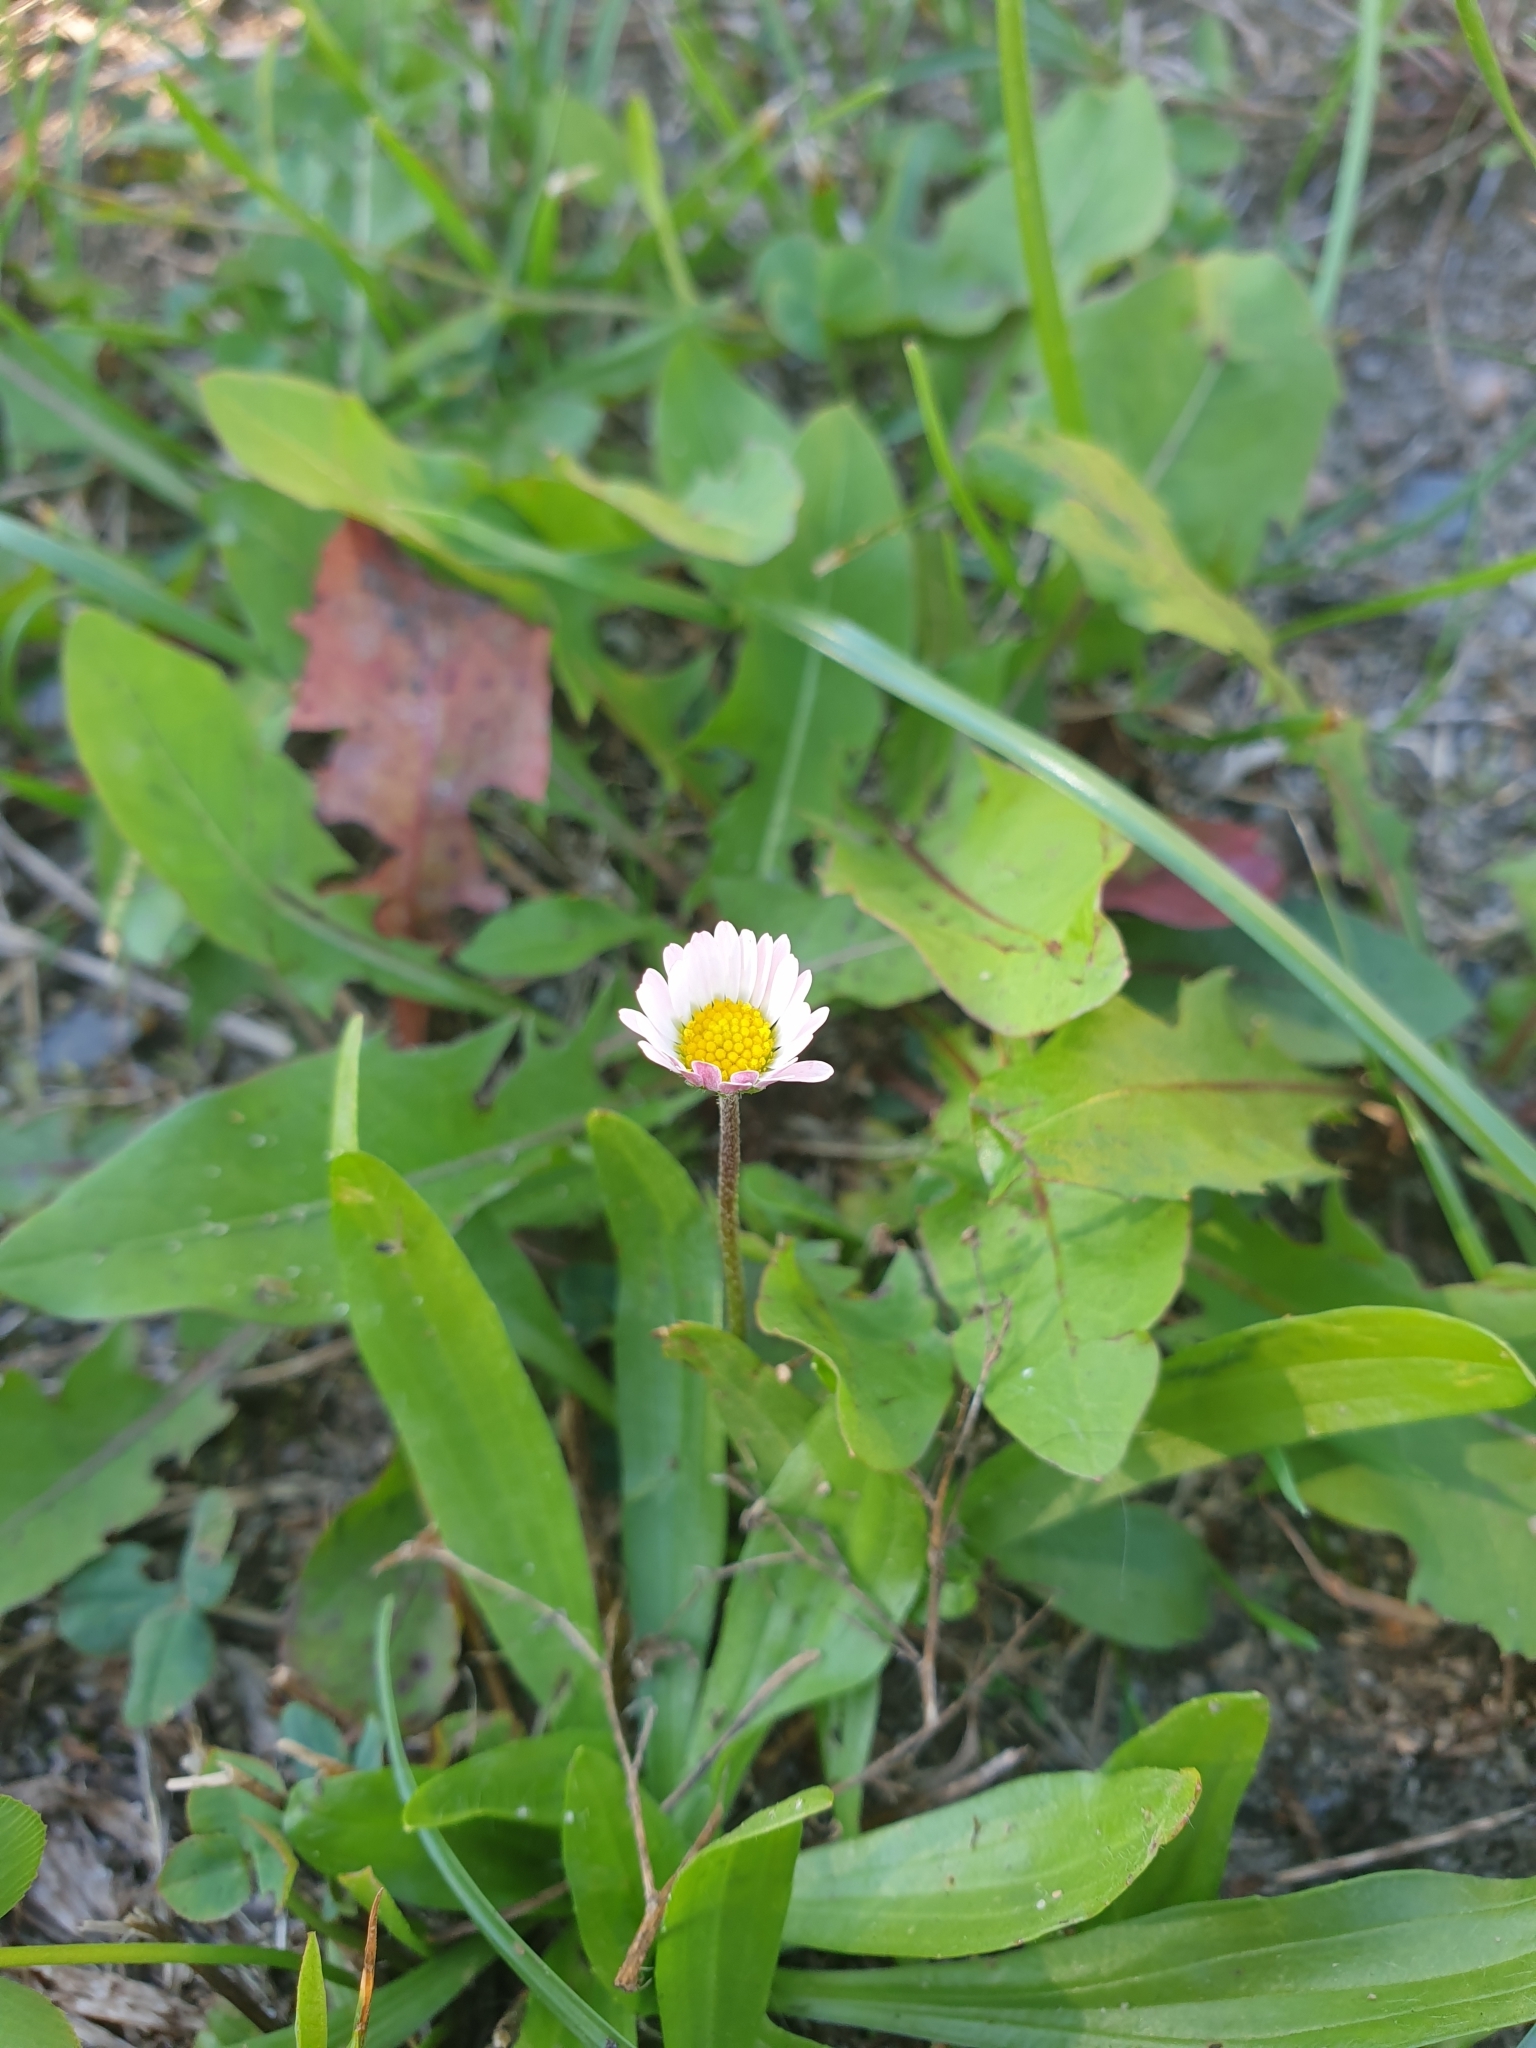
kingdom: Plantae
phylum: Tracheophyta
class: Magnoliopsida
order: Asterales
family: Asteraceae
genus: Bellis
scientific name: Bellis perennis
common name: Lawndaisy
